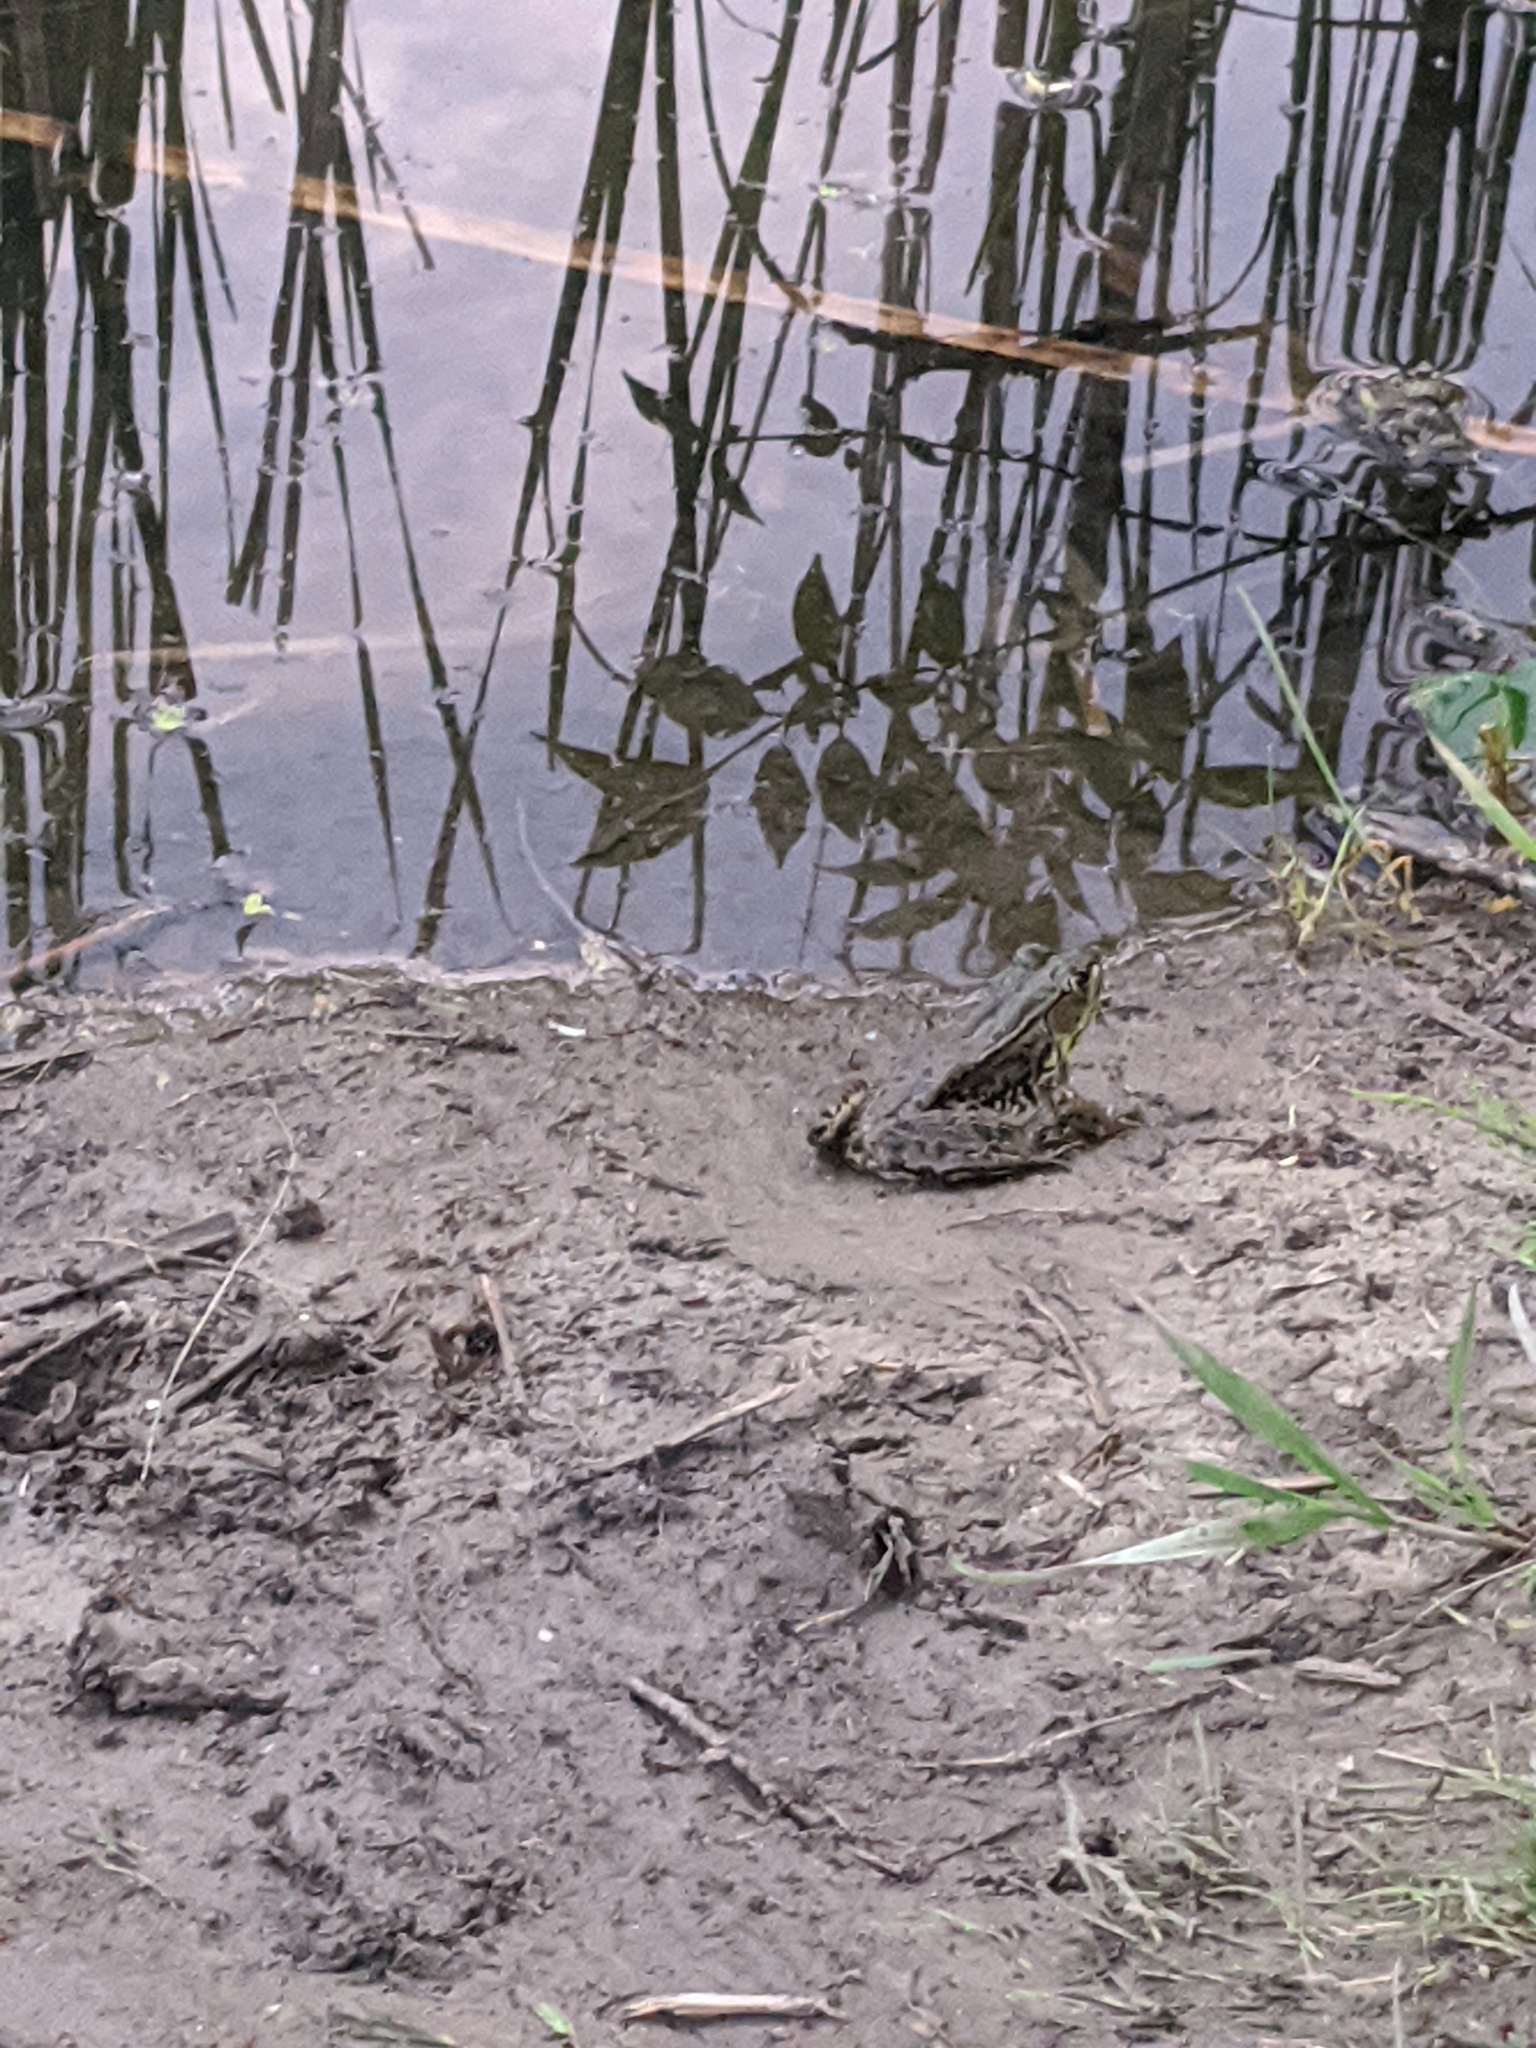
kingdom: Animalia
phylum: Chordata
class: Amphibia
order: Anura
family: Ranidae
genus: Lithobates
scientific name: Lithobates clamitans
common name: Green frog
